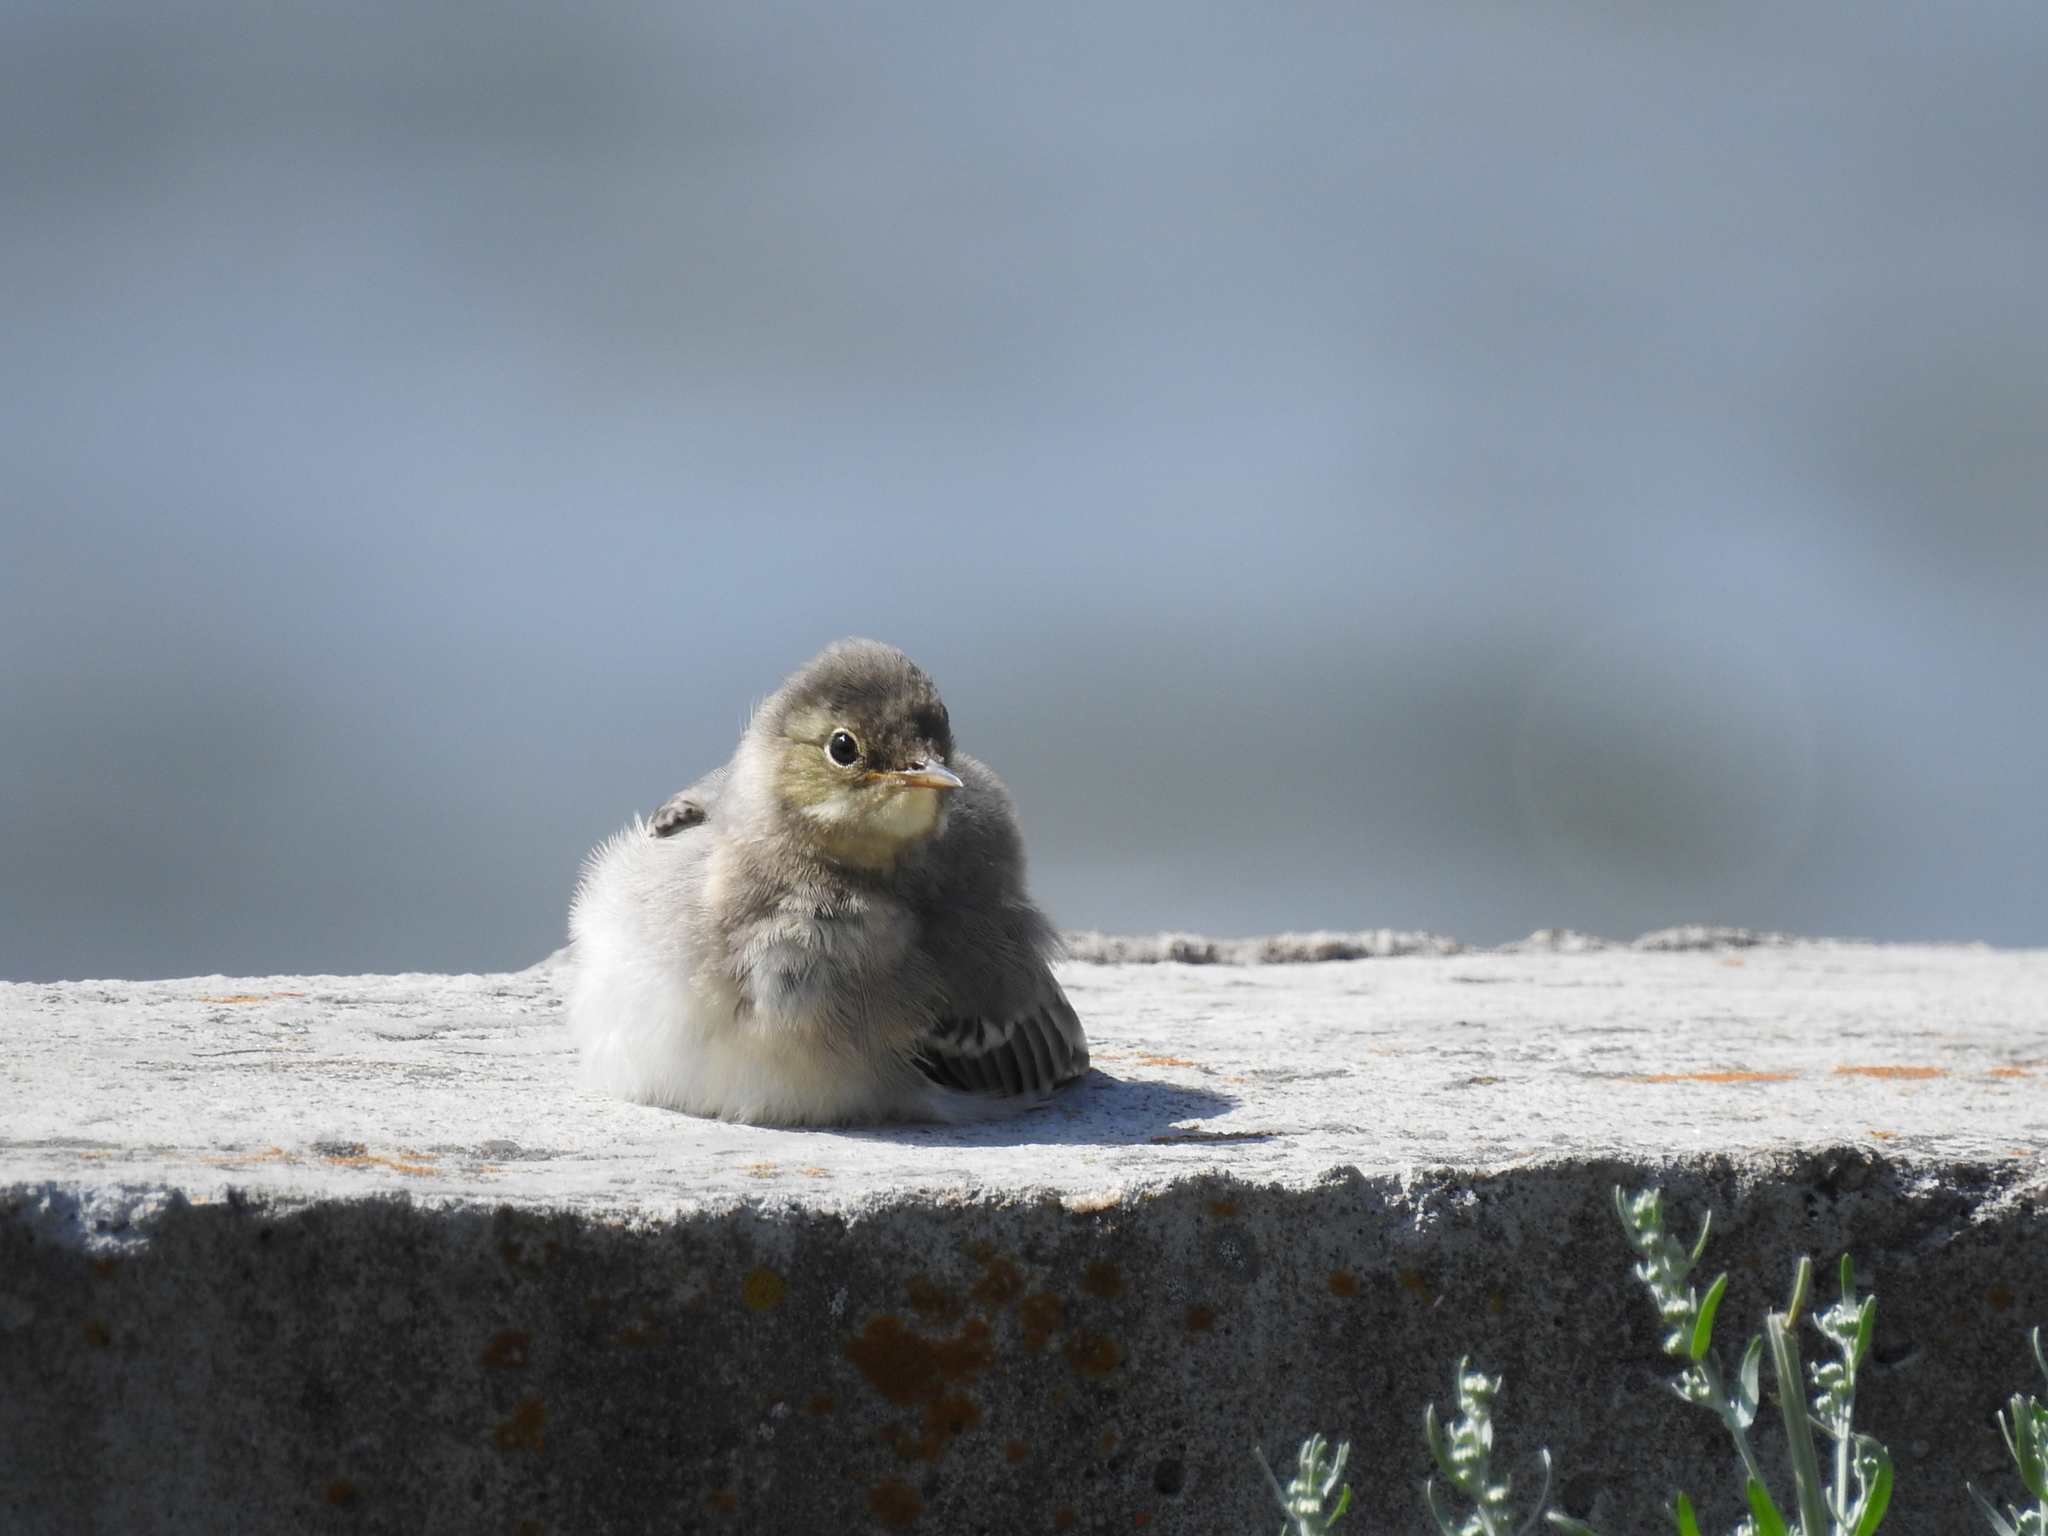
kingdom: Animalia
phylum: Chordata
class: Aves
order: Passeriformes
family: Motacillidae
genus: Motacilla
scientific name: Motacilla alba
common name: White wagtail
